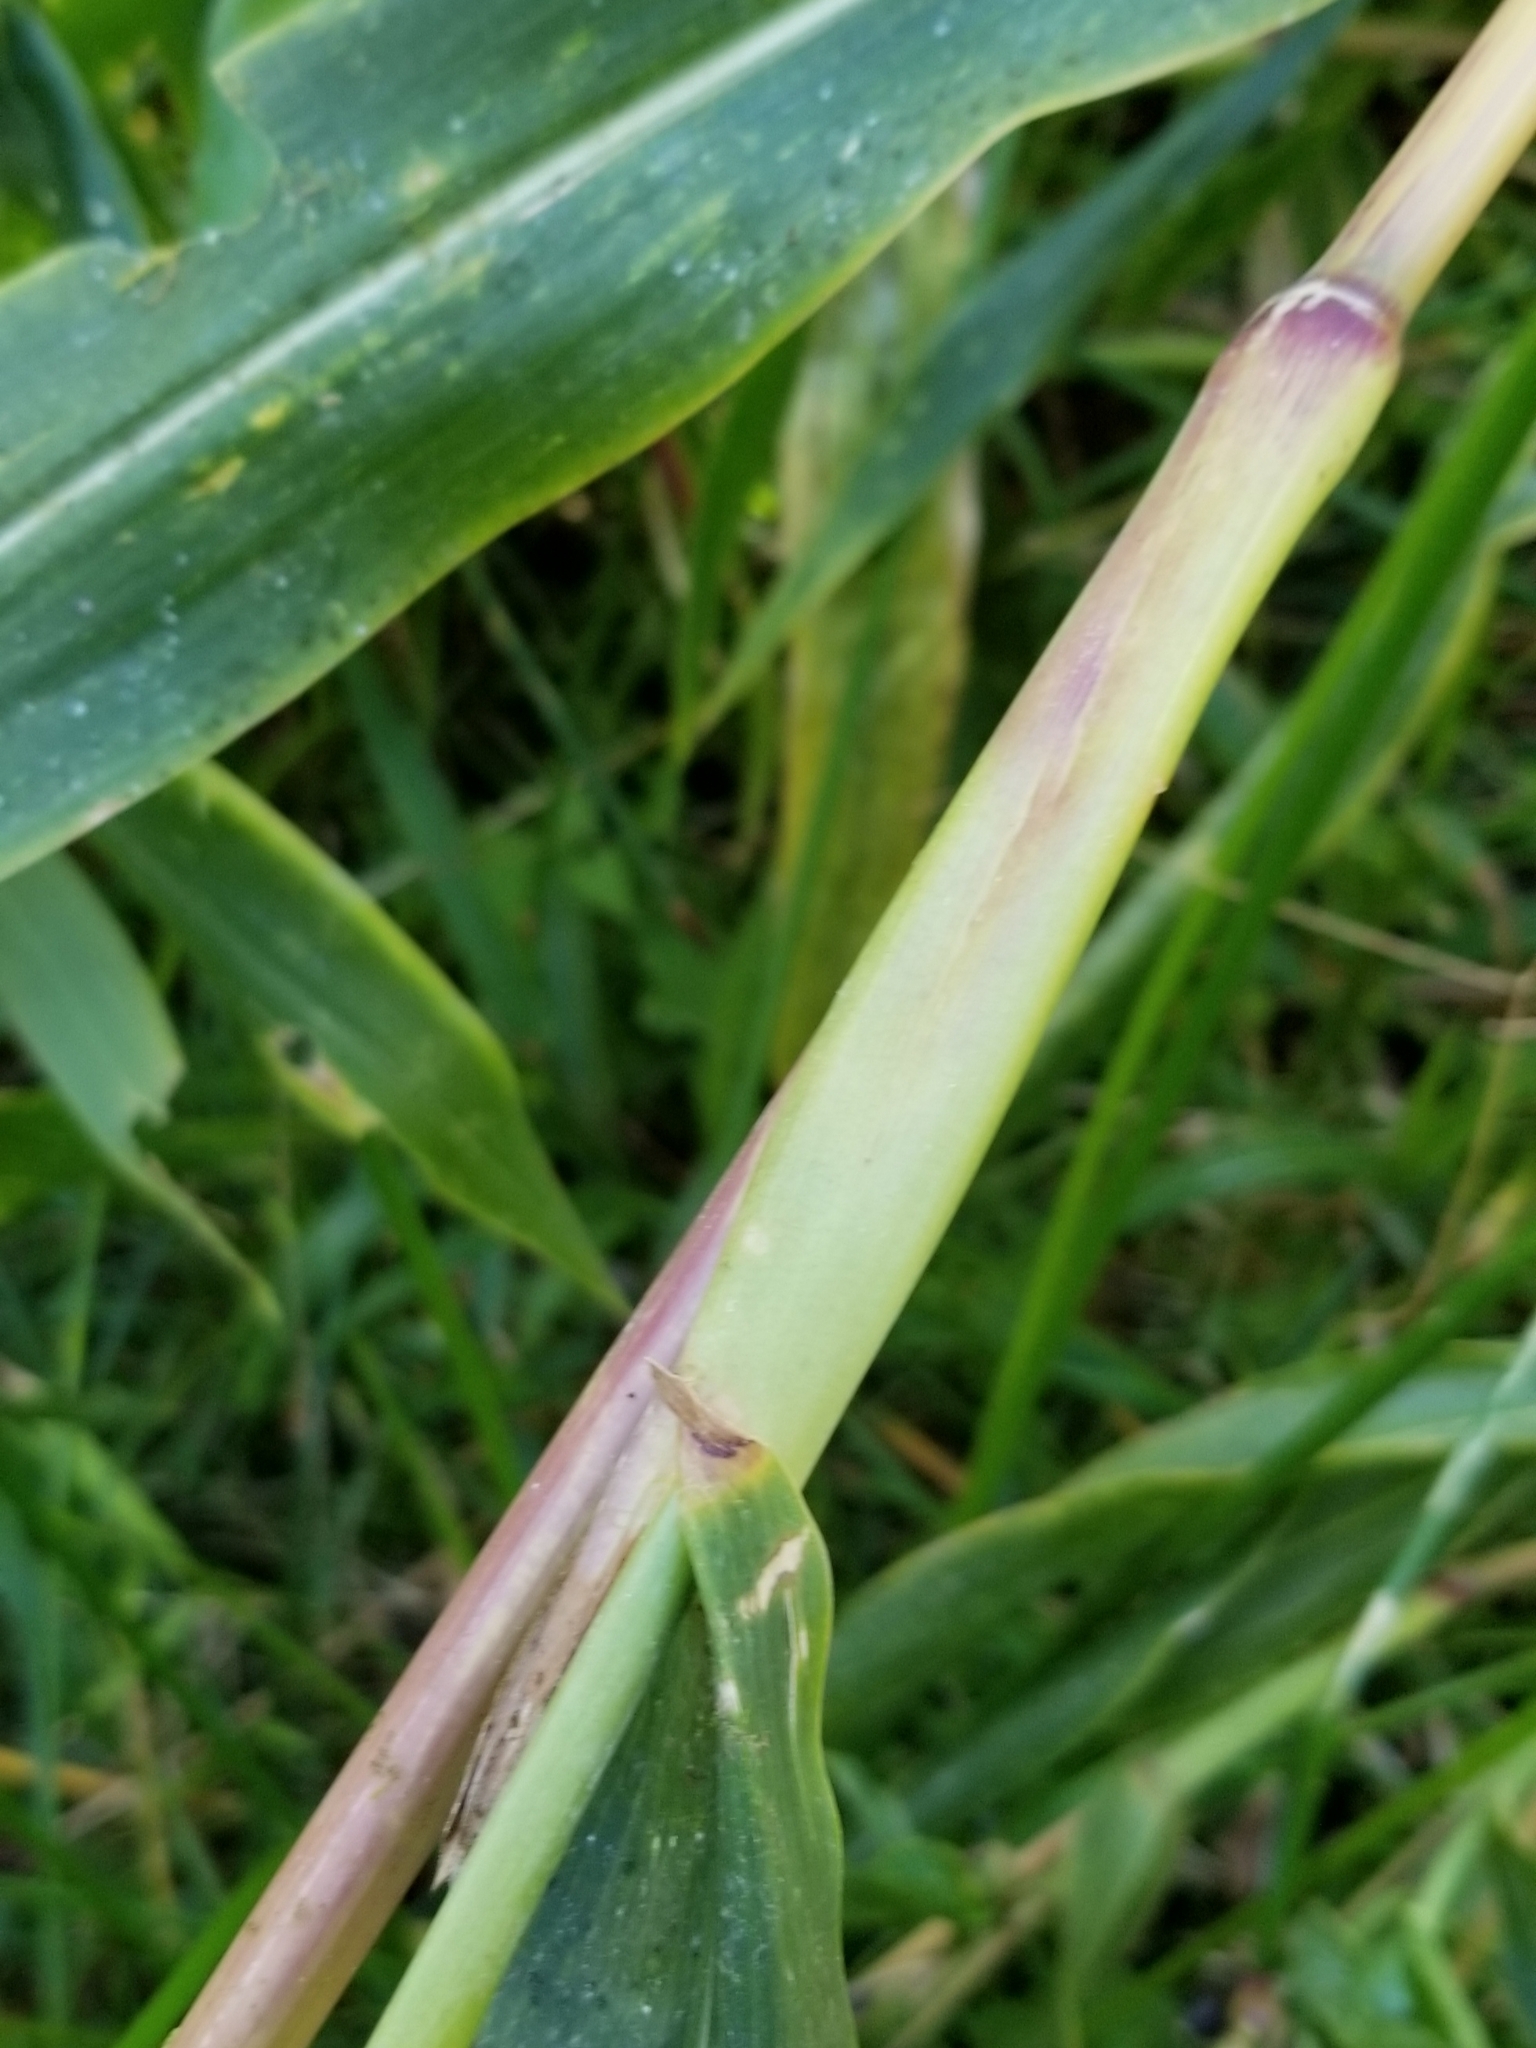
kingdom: Plantae
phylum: Tracheophyta
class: Liliopsida
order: Poales
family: Poaceae
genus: Coix
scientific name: Coix lacryma-jobi
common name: Job's tears
